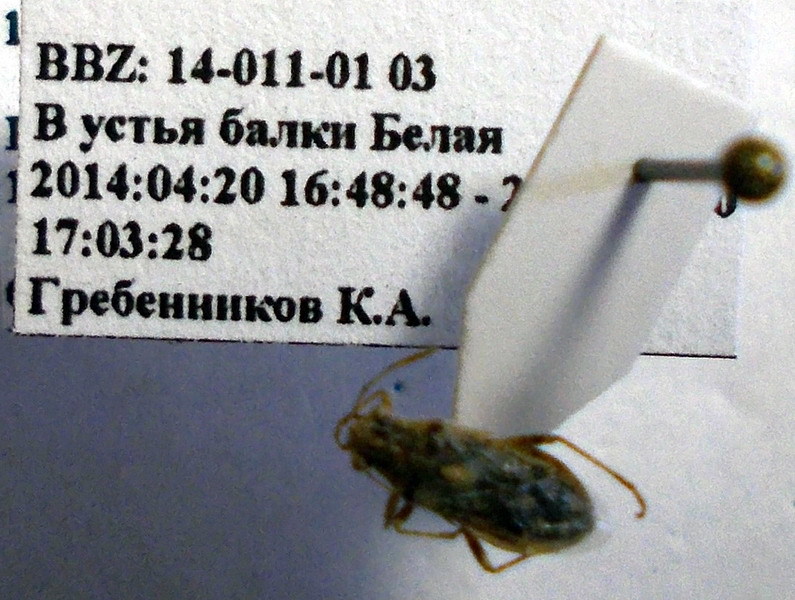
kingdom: Animalia
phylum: Arthropoda
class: Insecta
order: Hemiptera
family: Rhopalidae
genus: Brachycarenus
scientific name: Brachycarenus tigrinus
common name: Scentless plant bug
